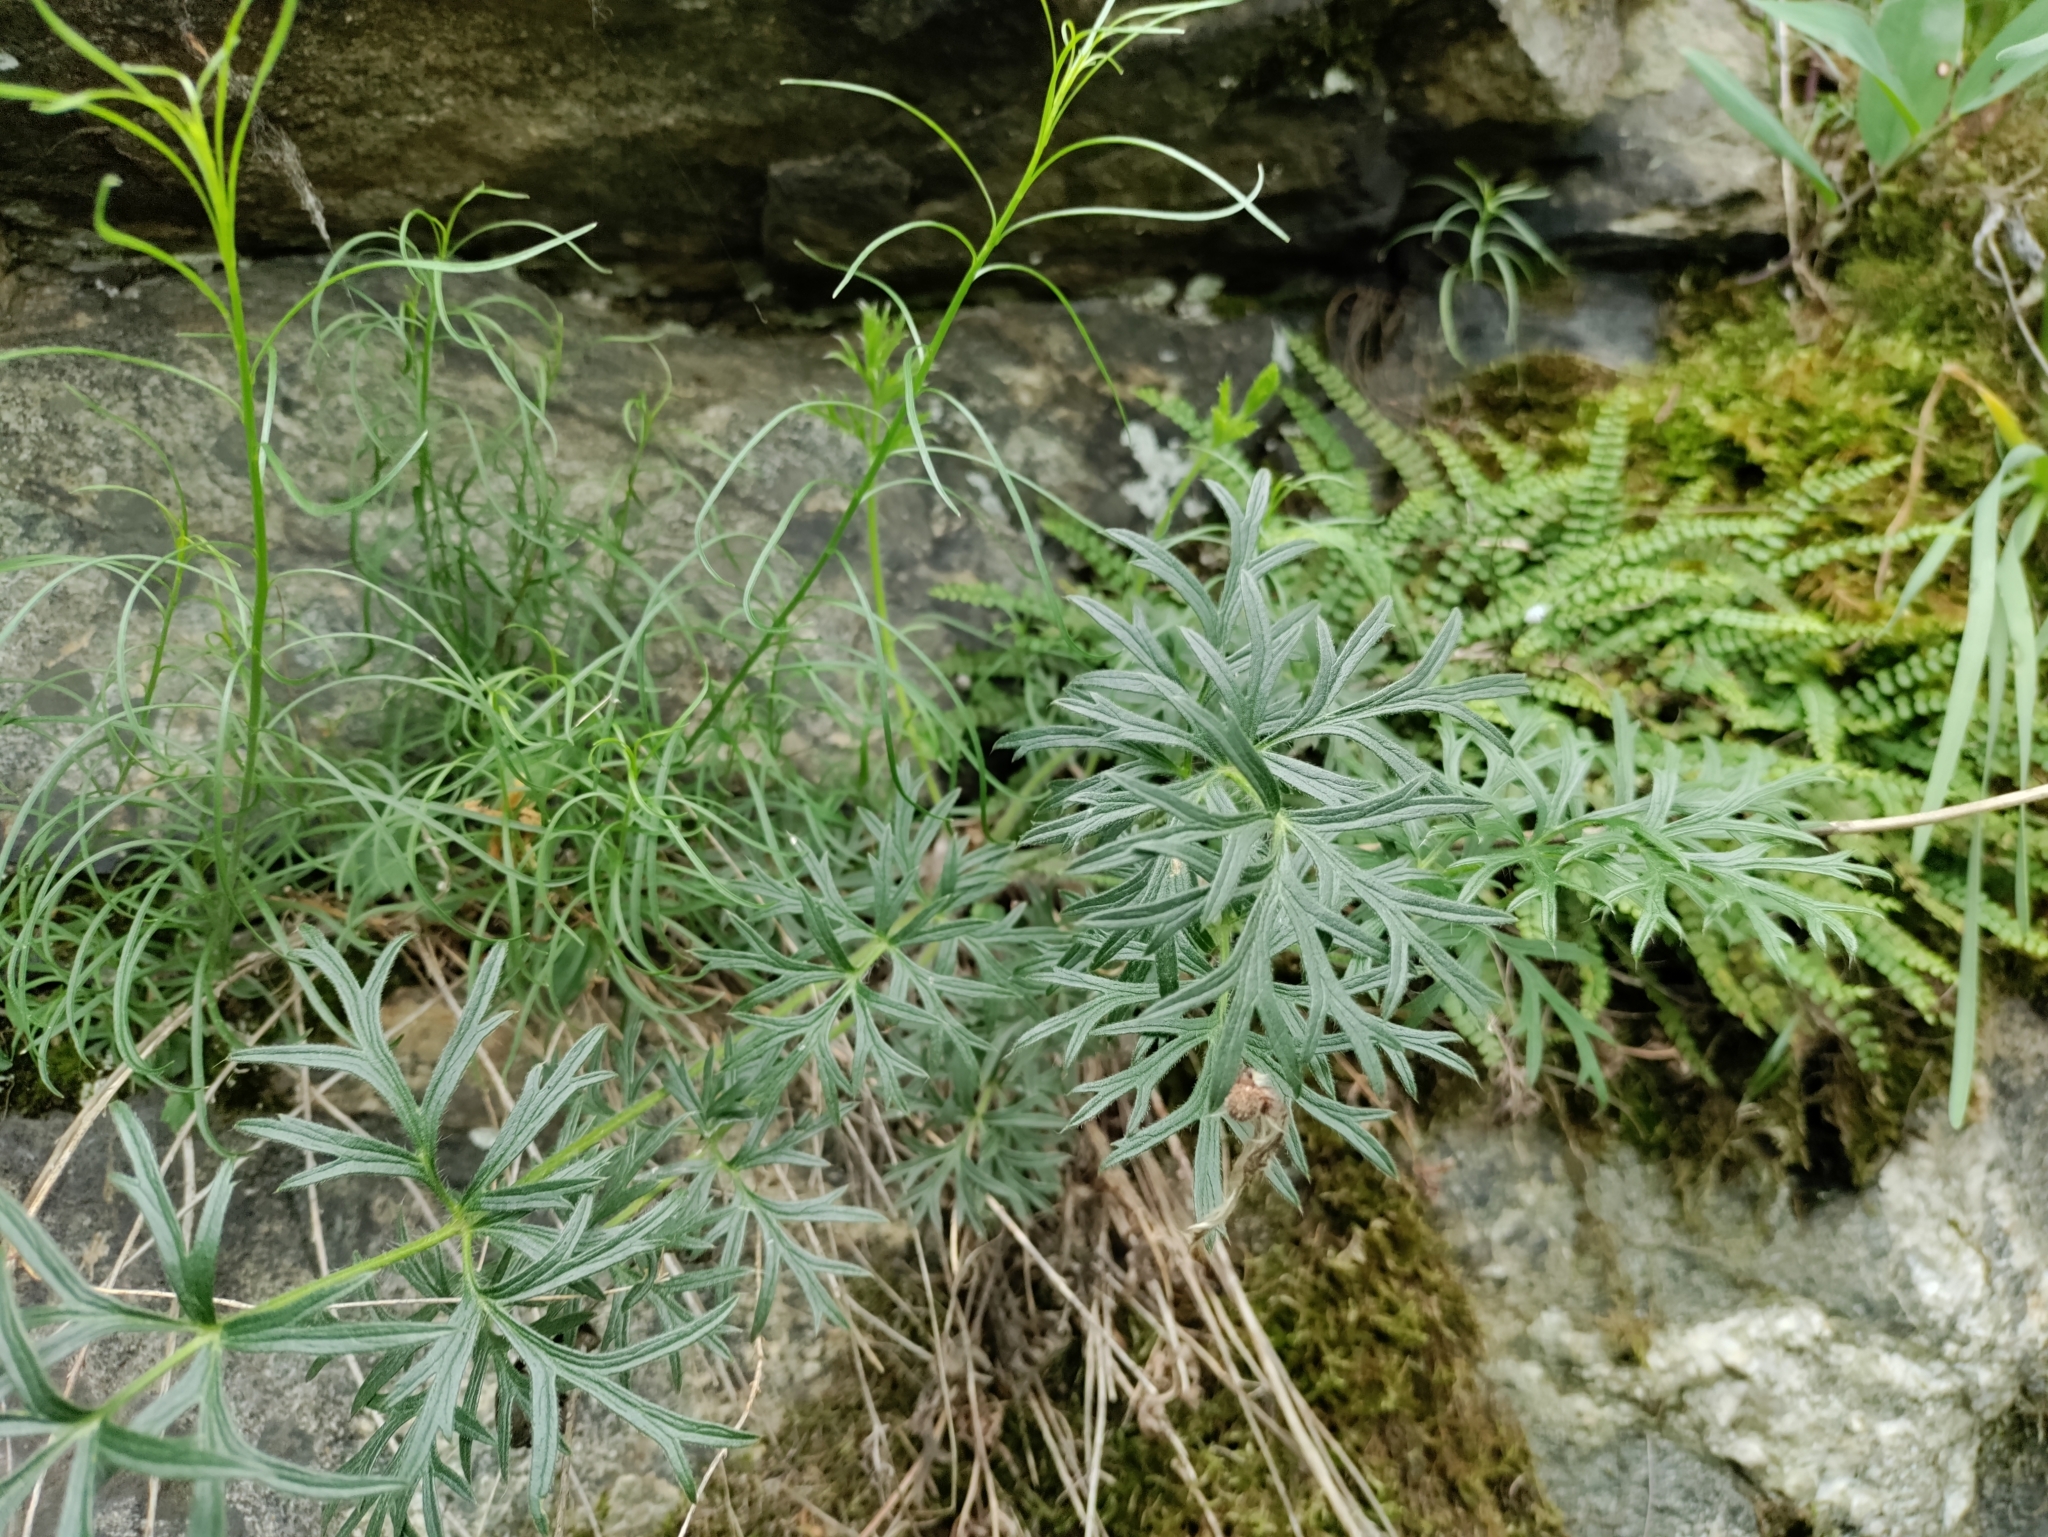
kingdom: Plantae
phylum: Tracheophyta
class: Magnoliopsida
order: Ranunculales
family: Ranunculaceae
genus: Pulsatilla
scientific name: Pulsatilla grandis
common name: Greater pasque flower
